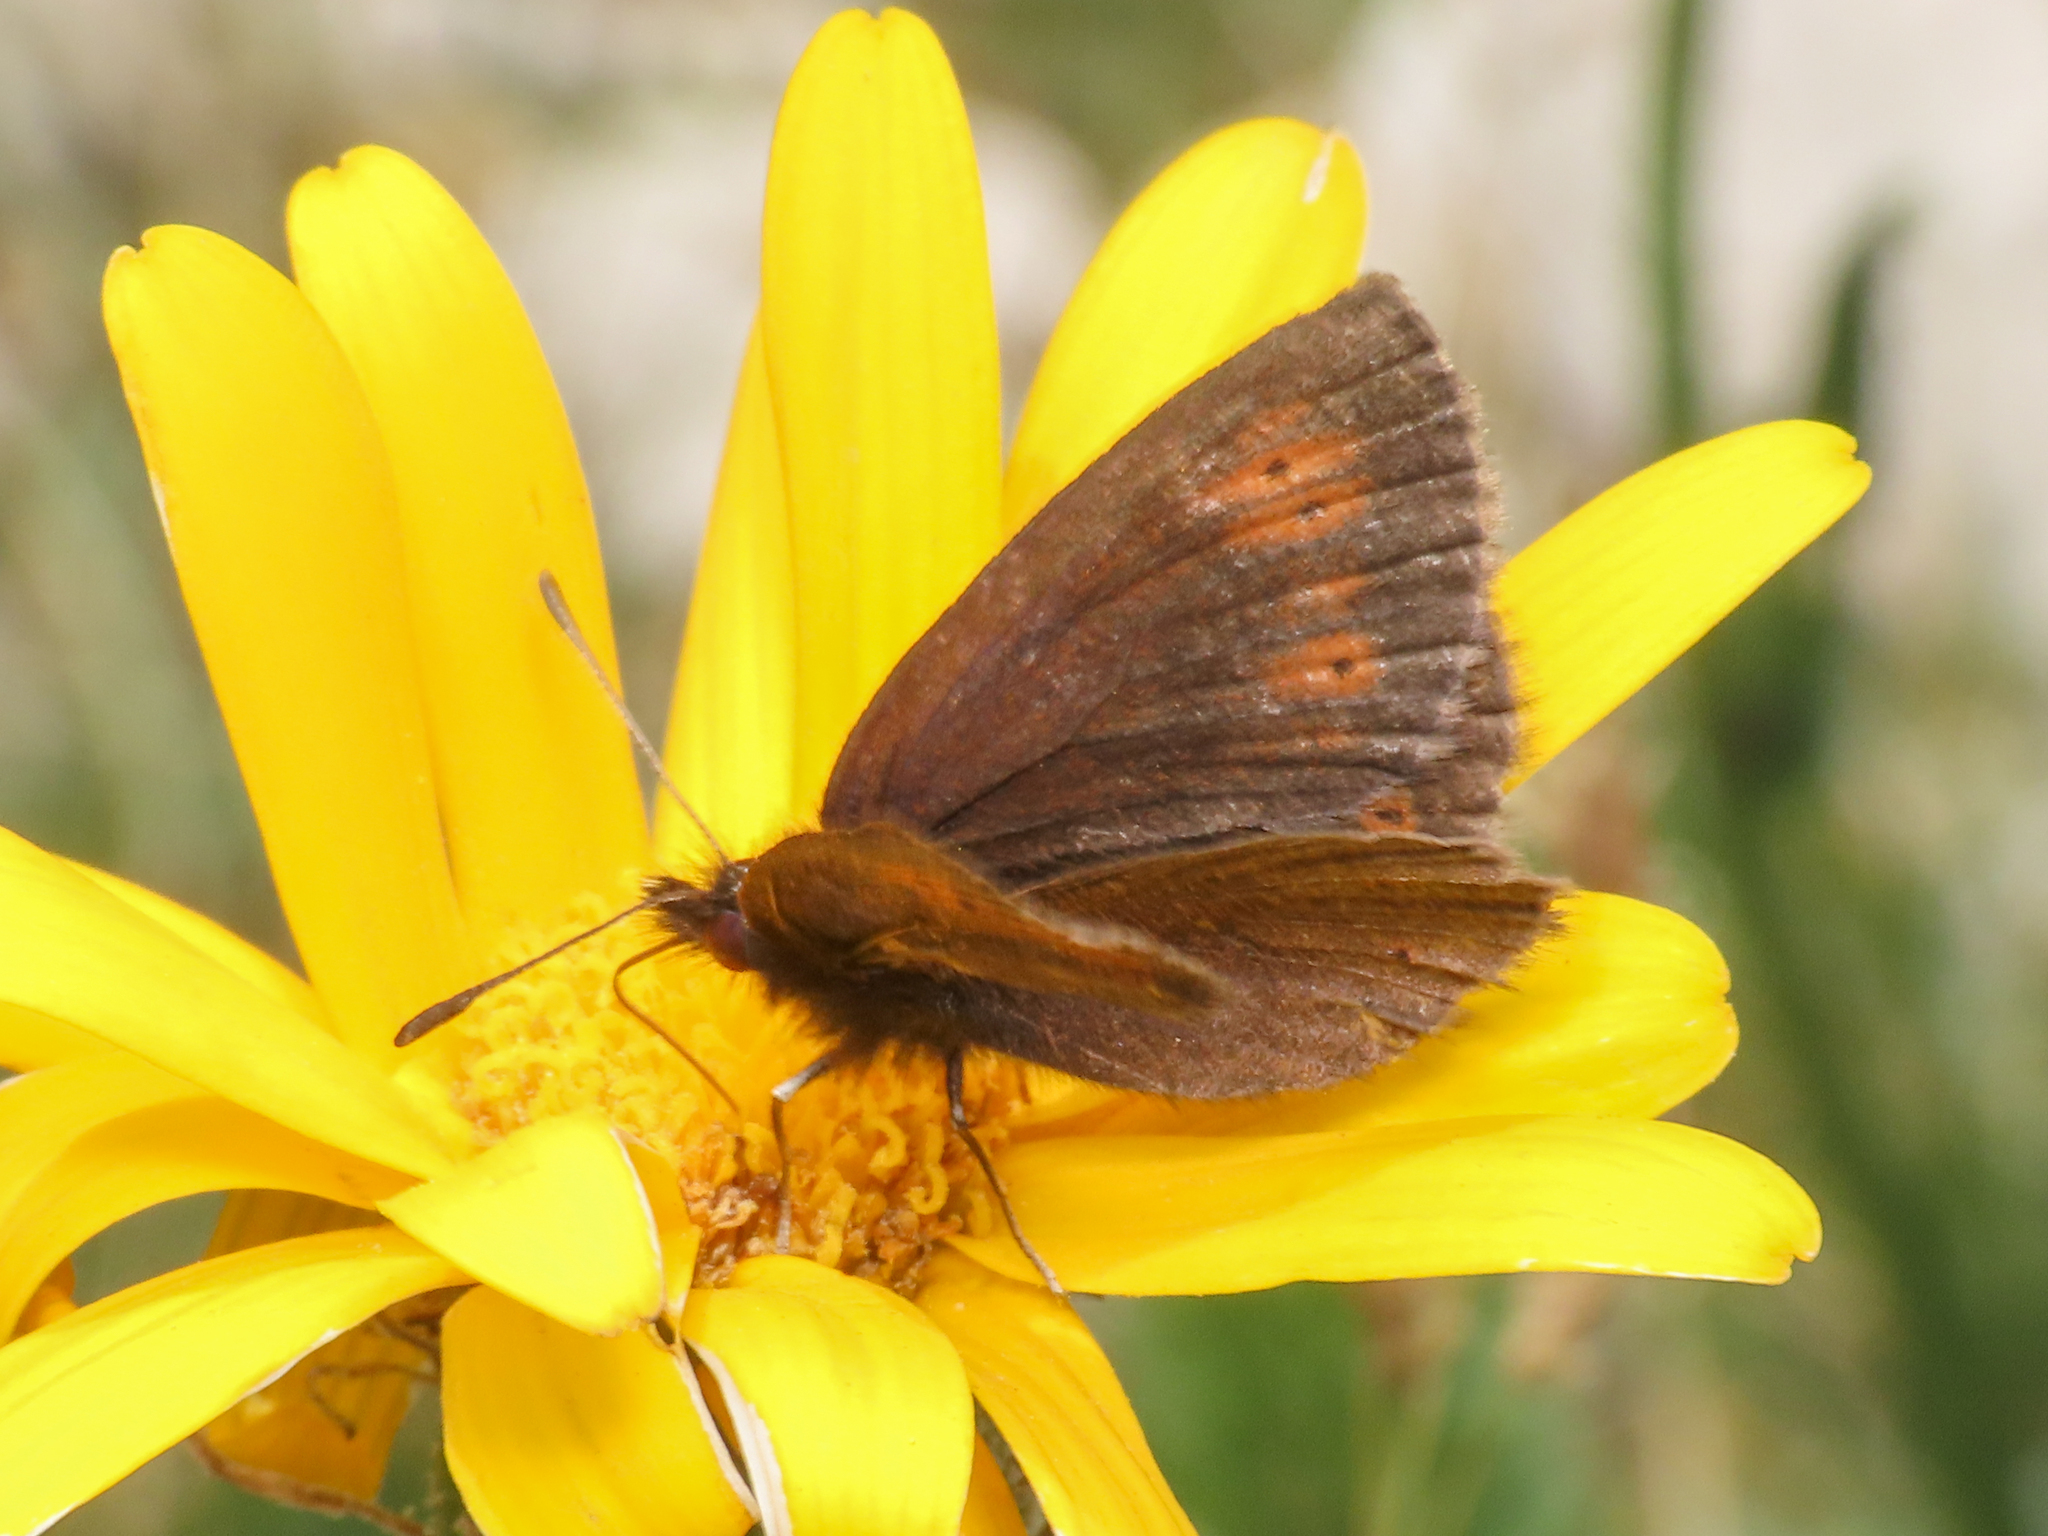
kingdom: Animalia
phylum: Arthropoda
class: Insecta
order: Lepidoptera
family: Nymphalidae
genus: Erebia
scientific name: Erebia epiphron
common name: Mountain ringlet
